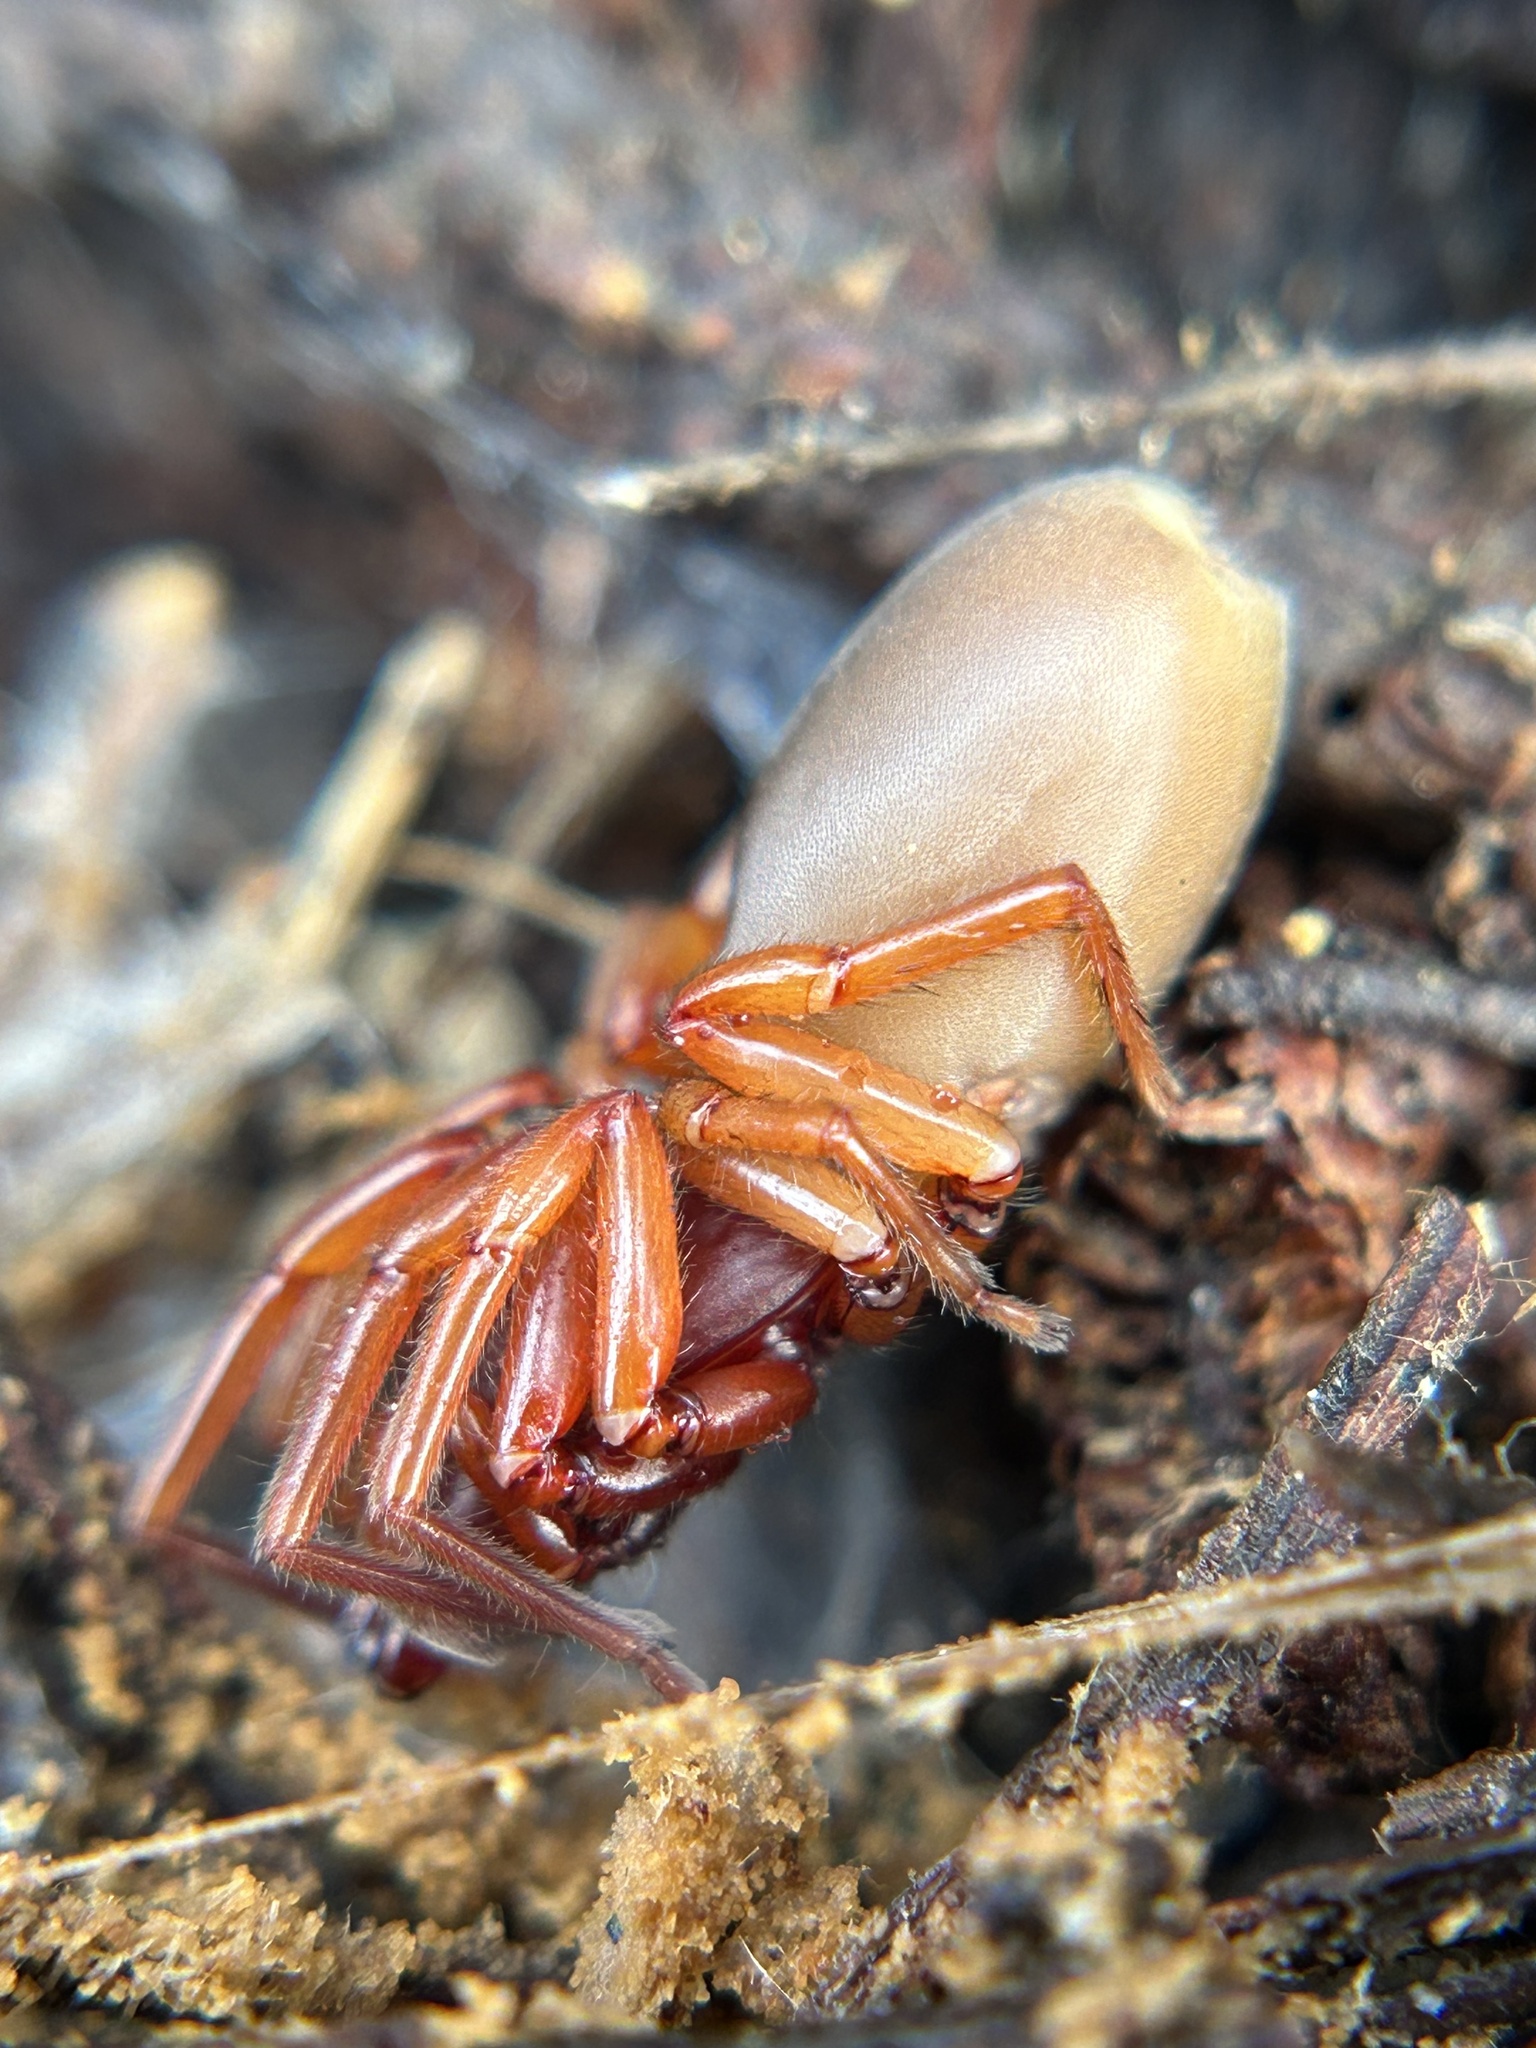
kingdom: Animalia
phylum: Arthropoda
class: Arachnida
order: Araneae
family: Dysderidae
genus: Dysdera
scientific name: Dysdera crocata
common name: Woodlouse spider
